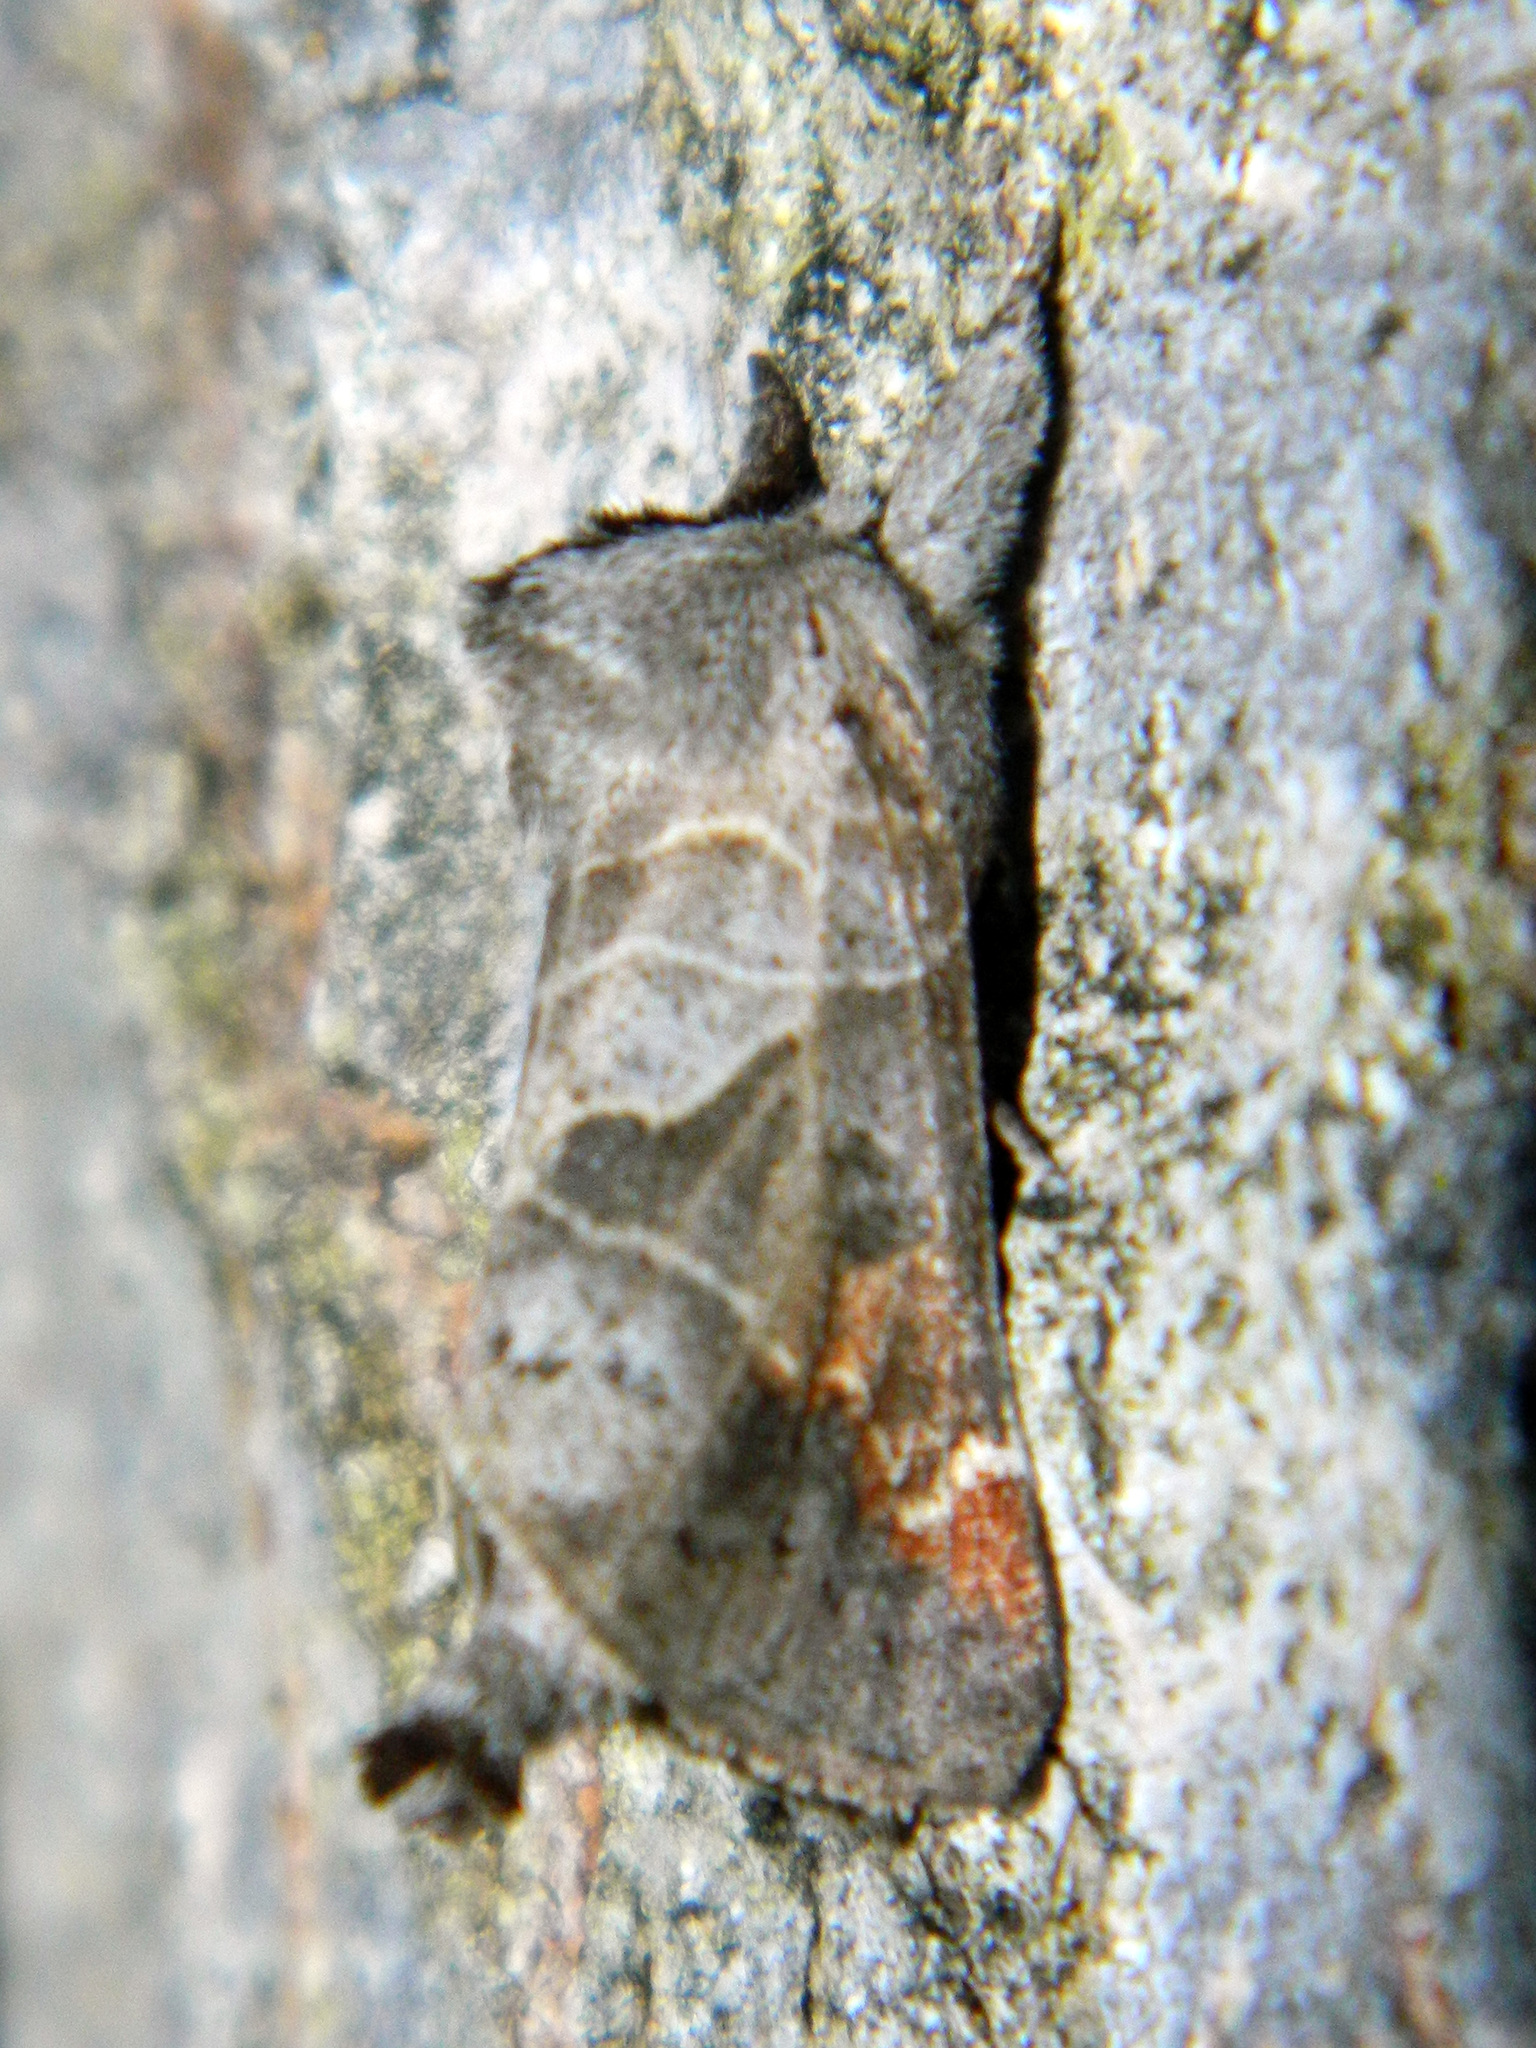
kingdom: Animalia
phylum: Arthropoda
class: Insecta
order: Lepidoptera
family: Notodontidae
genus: Clostera
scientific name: Clostera apicalis
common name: Apical prominent
